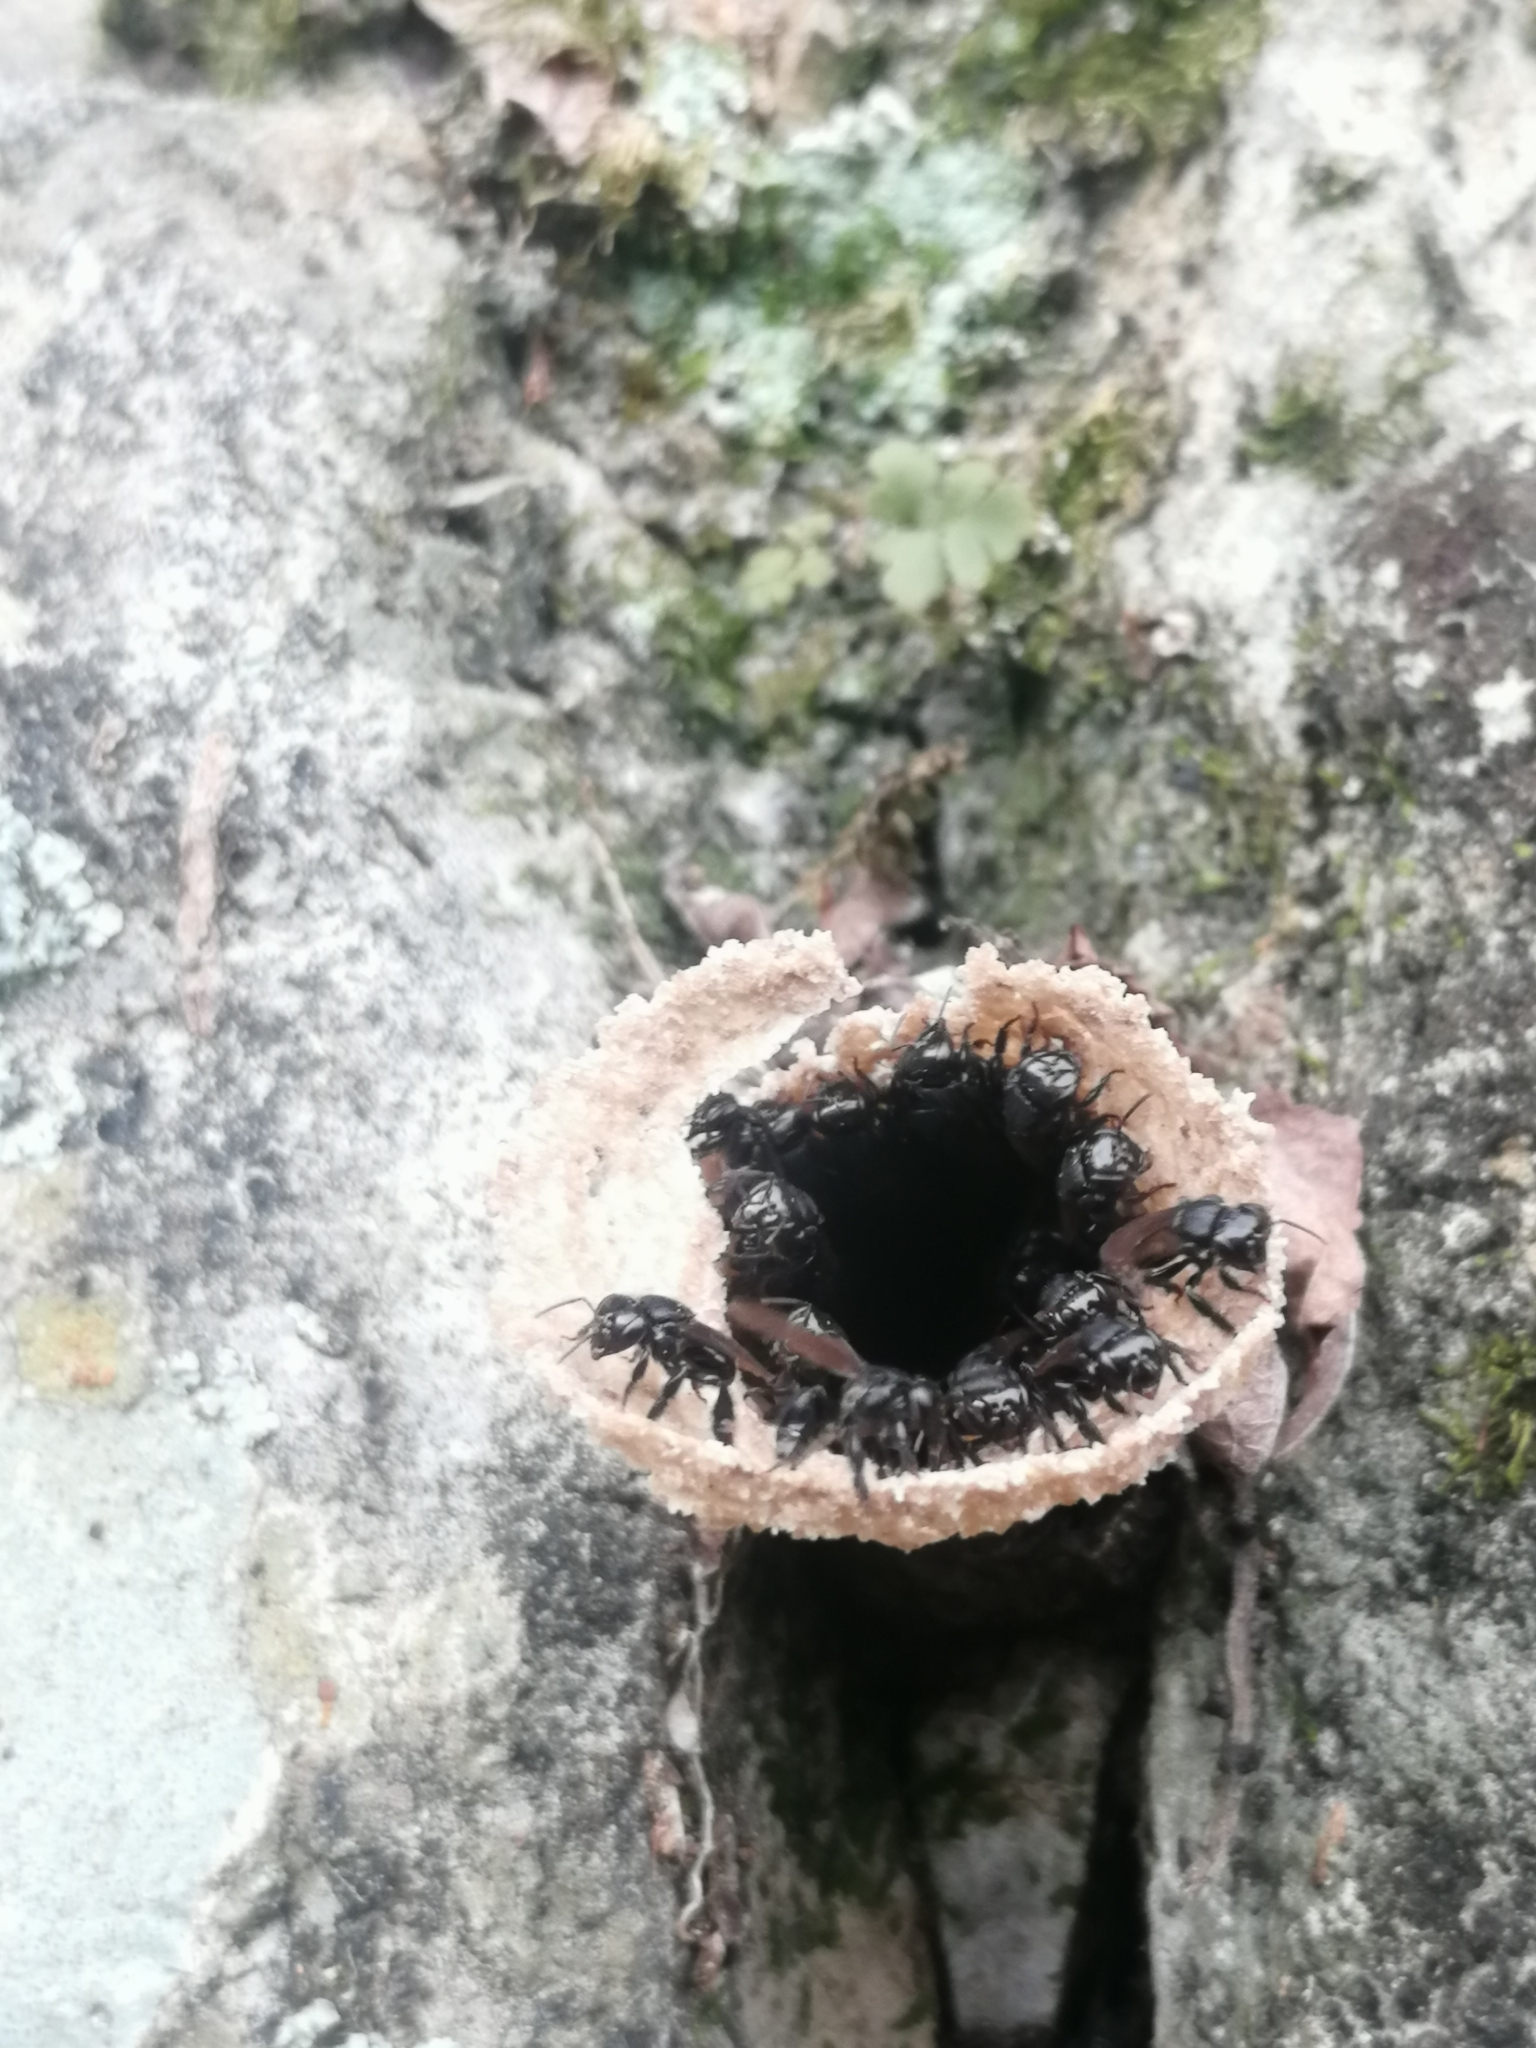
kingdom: Animalia
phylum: Arthropoda
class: Insecta
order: Hymenoptera
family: Apidae
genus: Scaptotrigona
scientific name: Scaptotrigona mexicana
